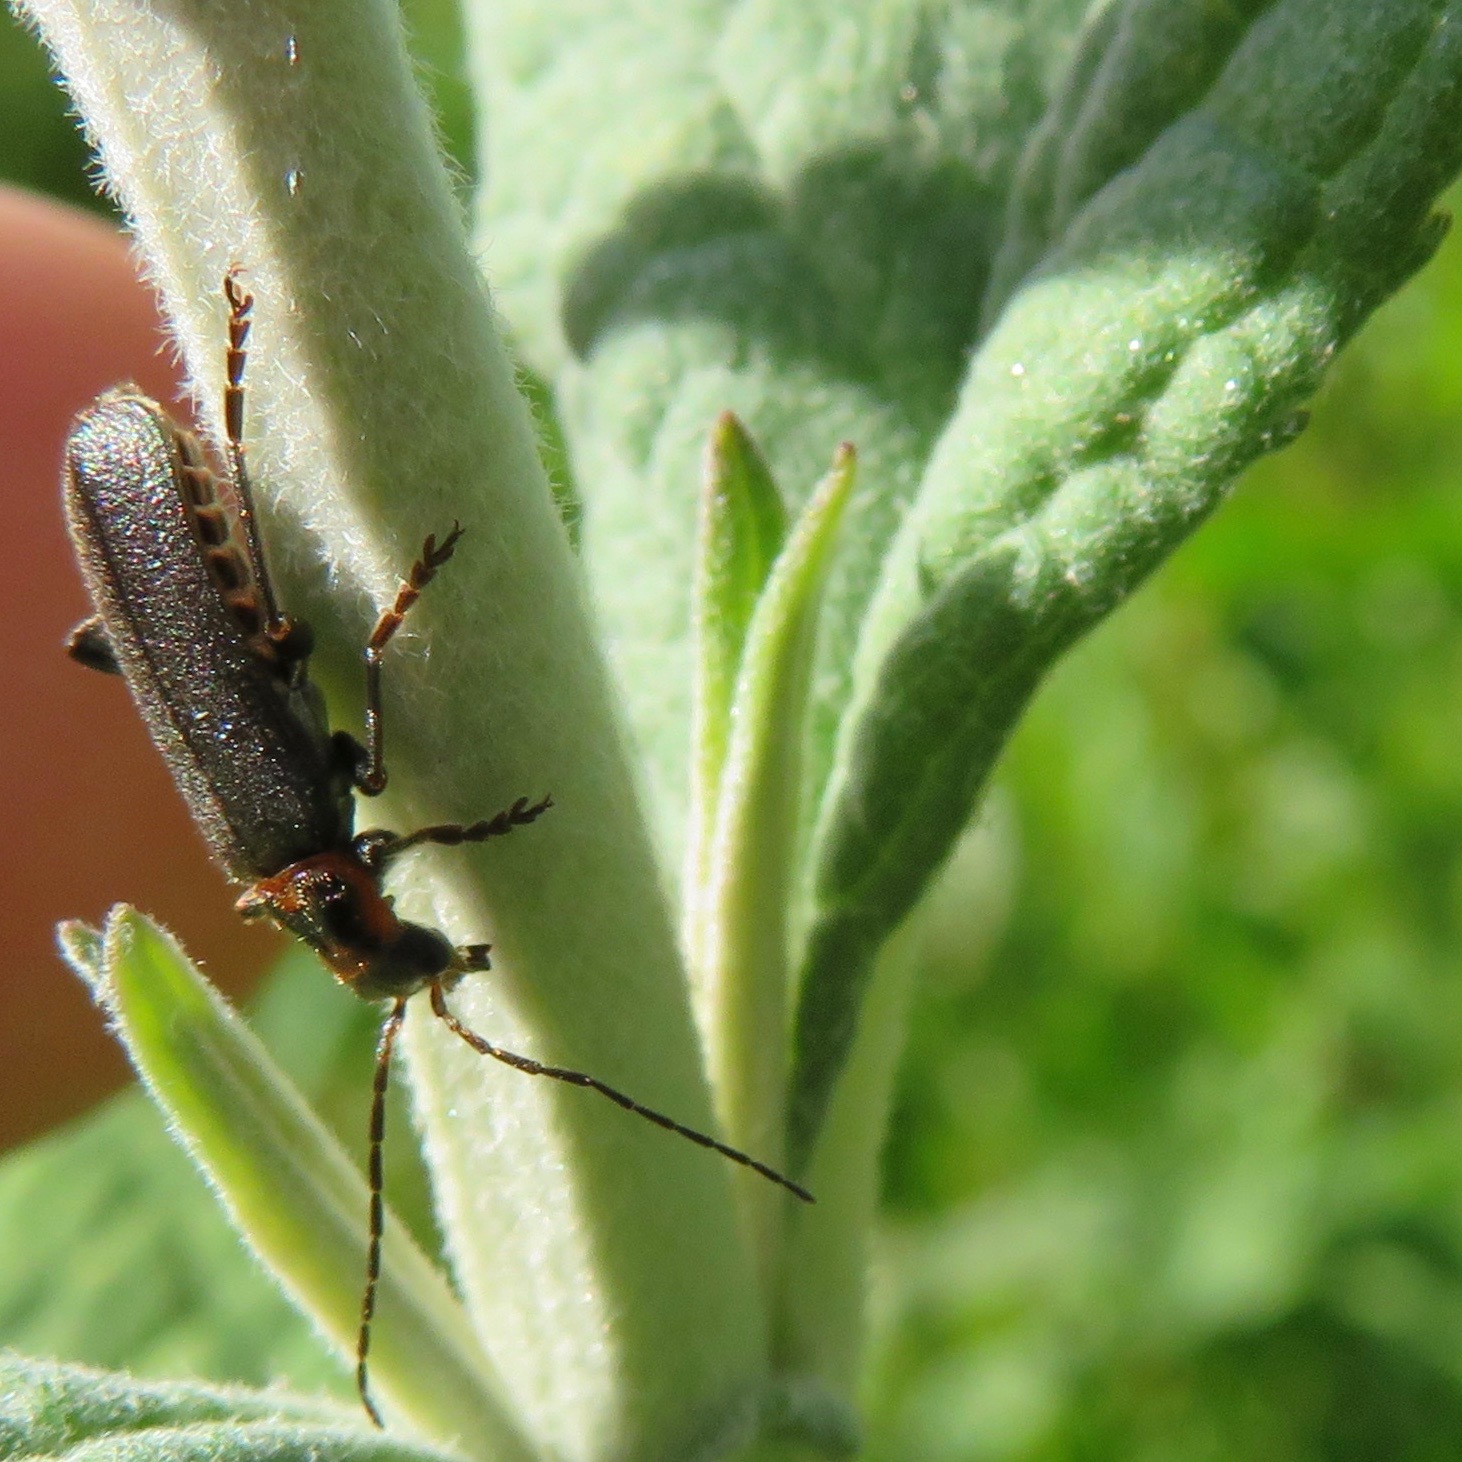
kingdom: Animalia
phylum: Arthropoda
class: Insecta
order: Coleoptera
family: Cantharidae
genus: Cyrtomoptera
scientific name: Cyrtomoptera divisa
